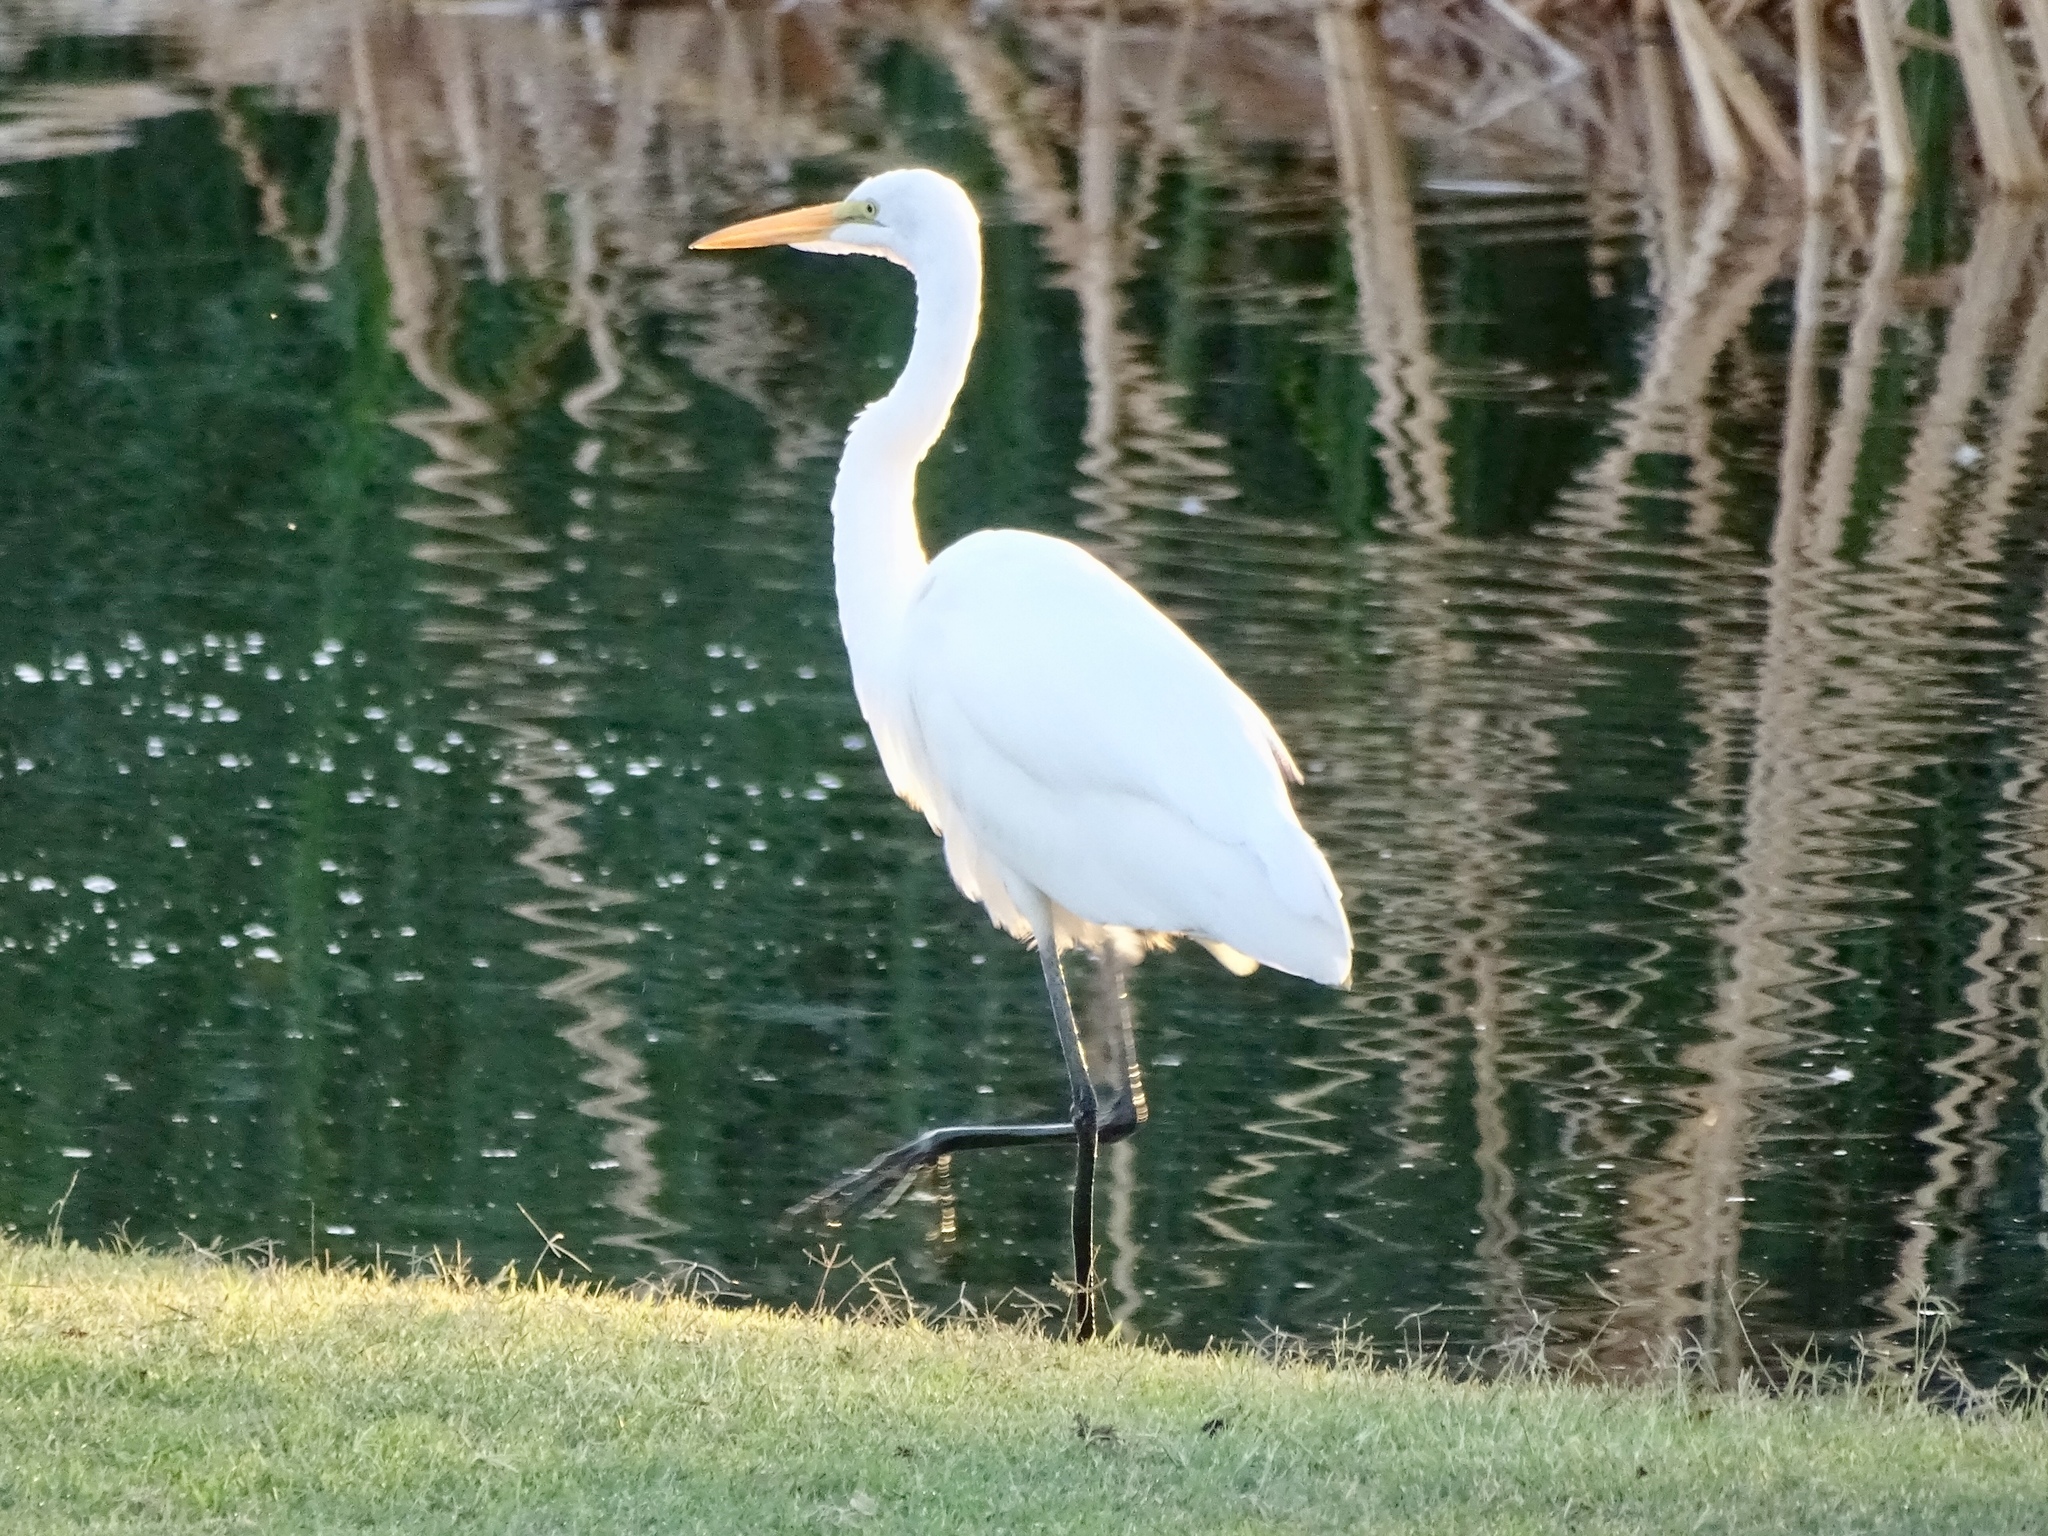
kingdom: Animalia
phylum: Chordata
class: Aves
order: Pelecaniformes
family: Ardeidae
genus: Ardea
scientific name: Ardea alba
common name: Great egret
